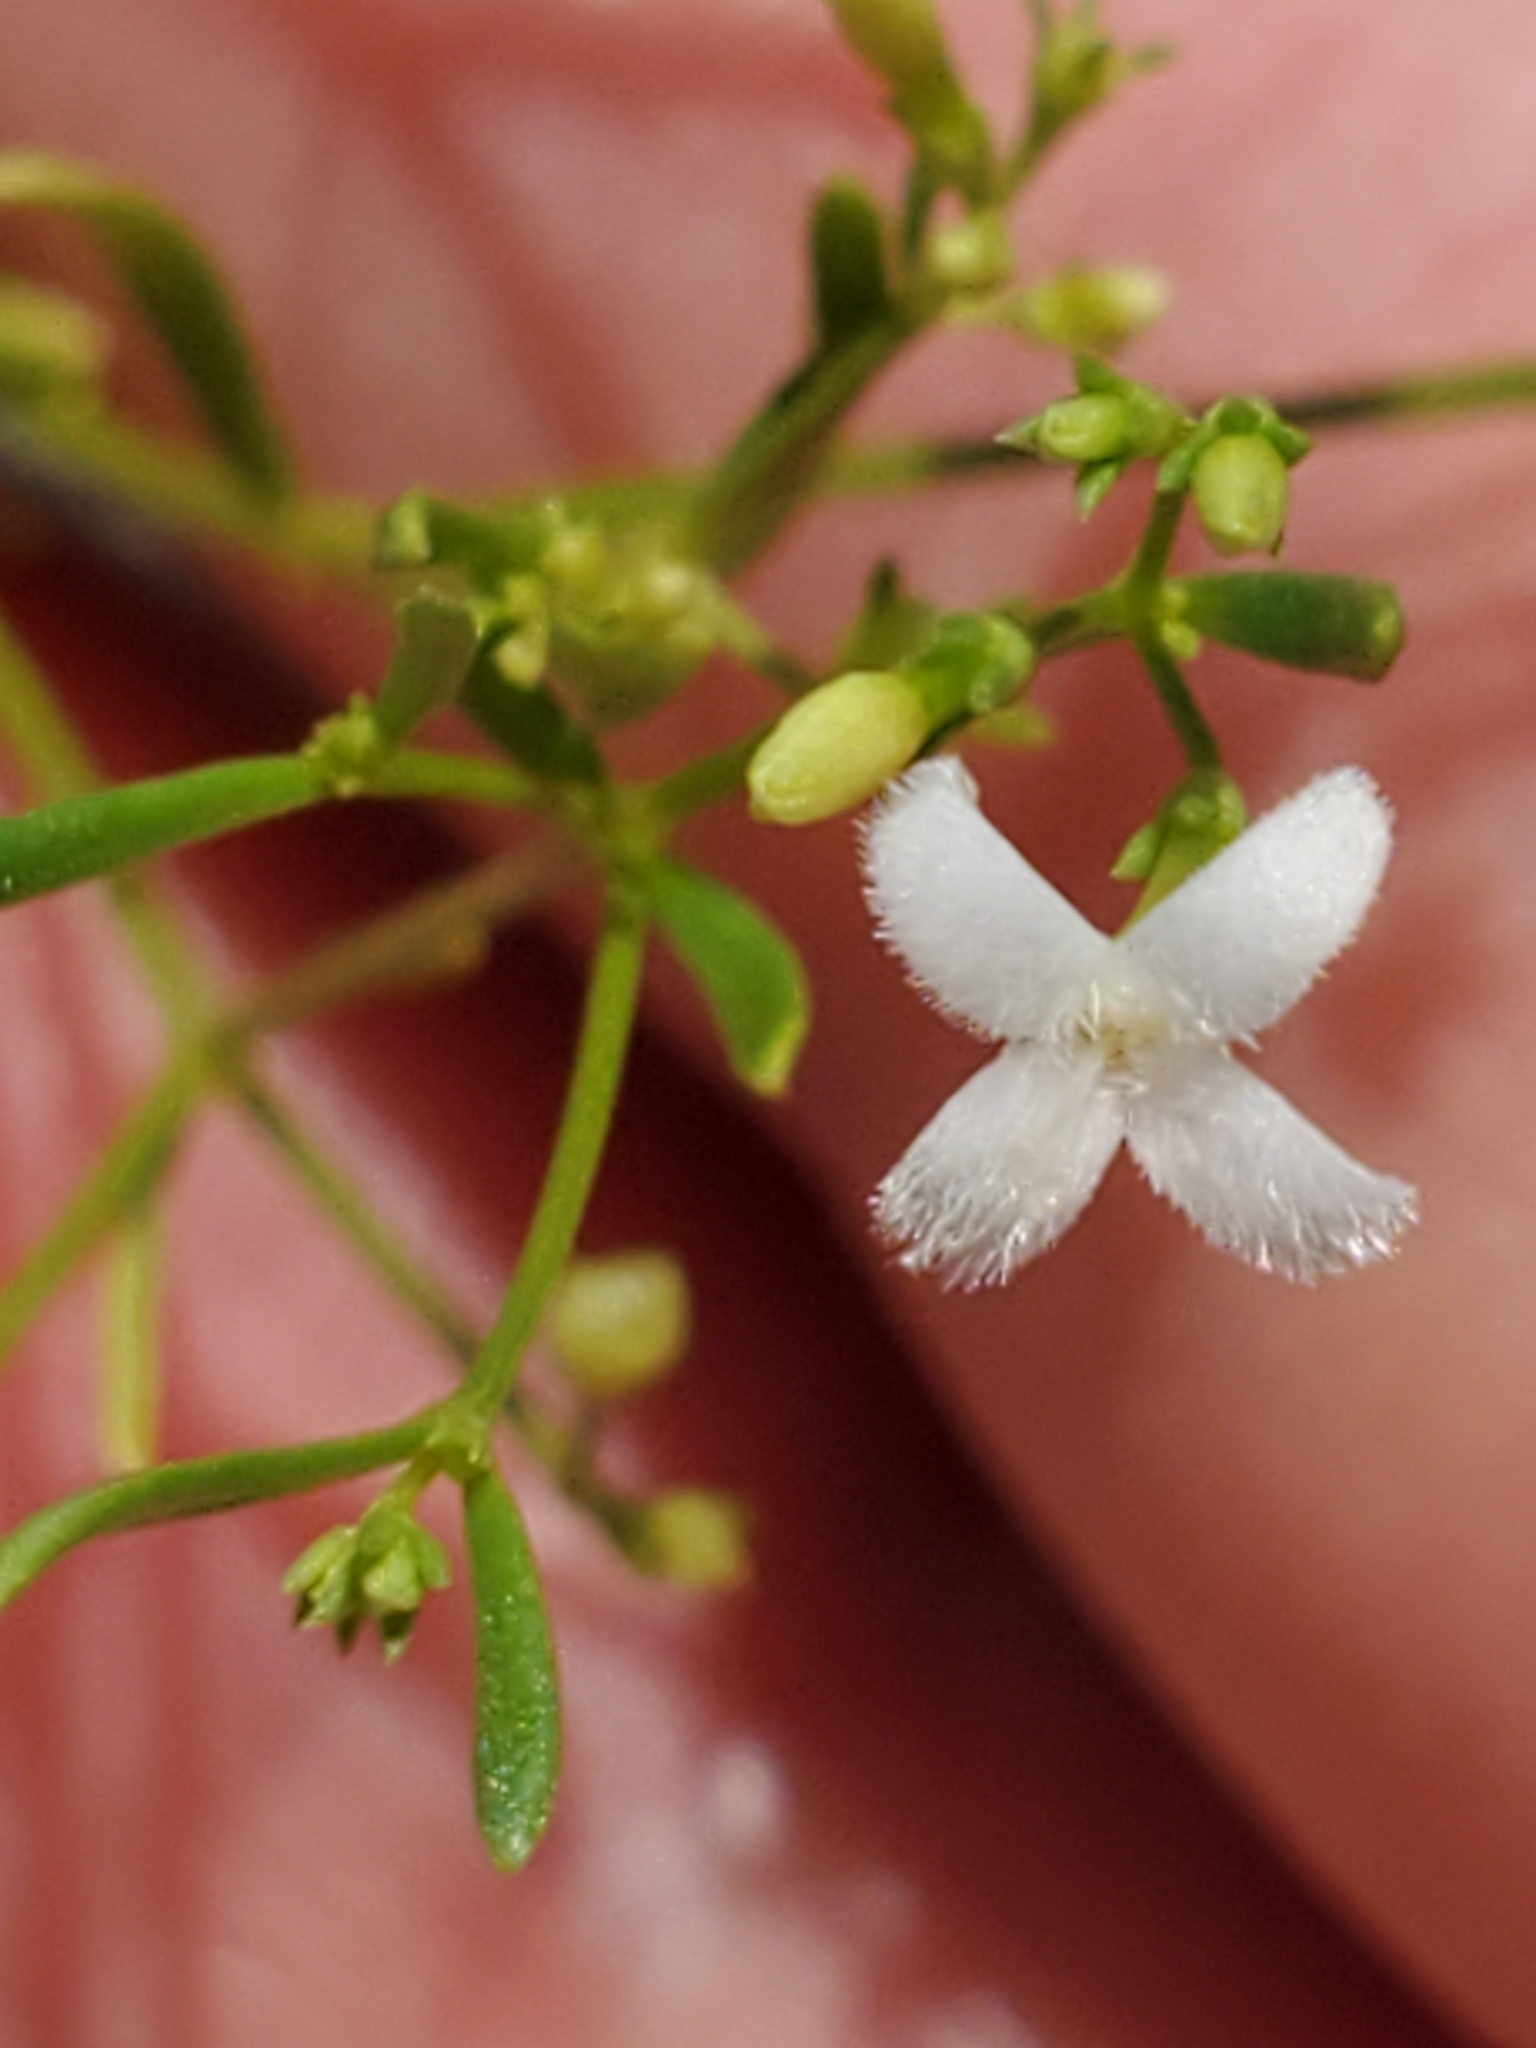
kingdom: Plantae
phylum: Tracheophyta
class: Magnoliopsida
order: Gentianales
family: Rubiaceae
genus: Stenaria
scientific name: Stenaria nigricans
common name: Diamondflowers
